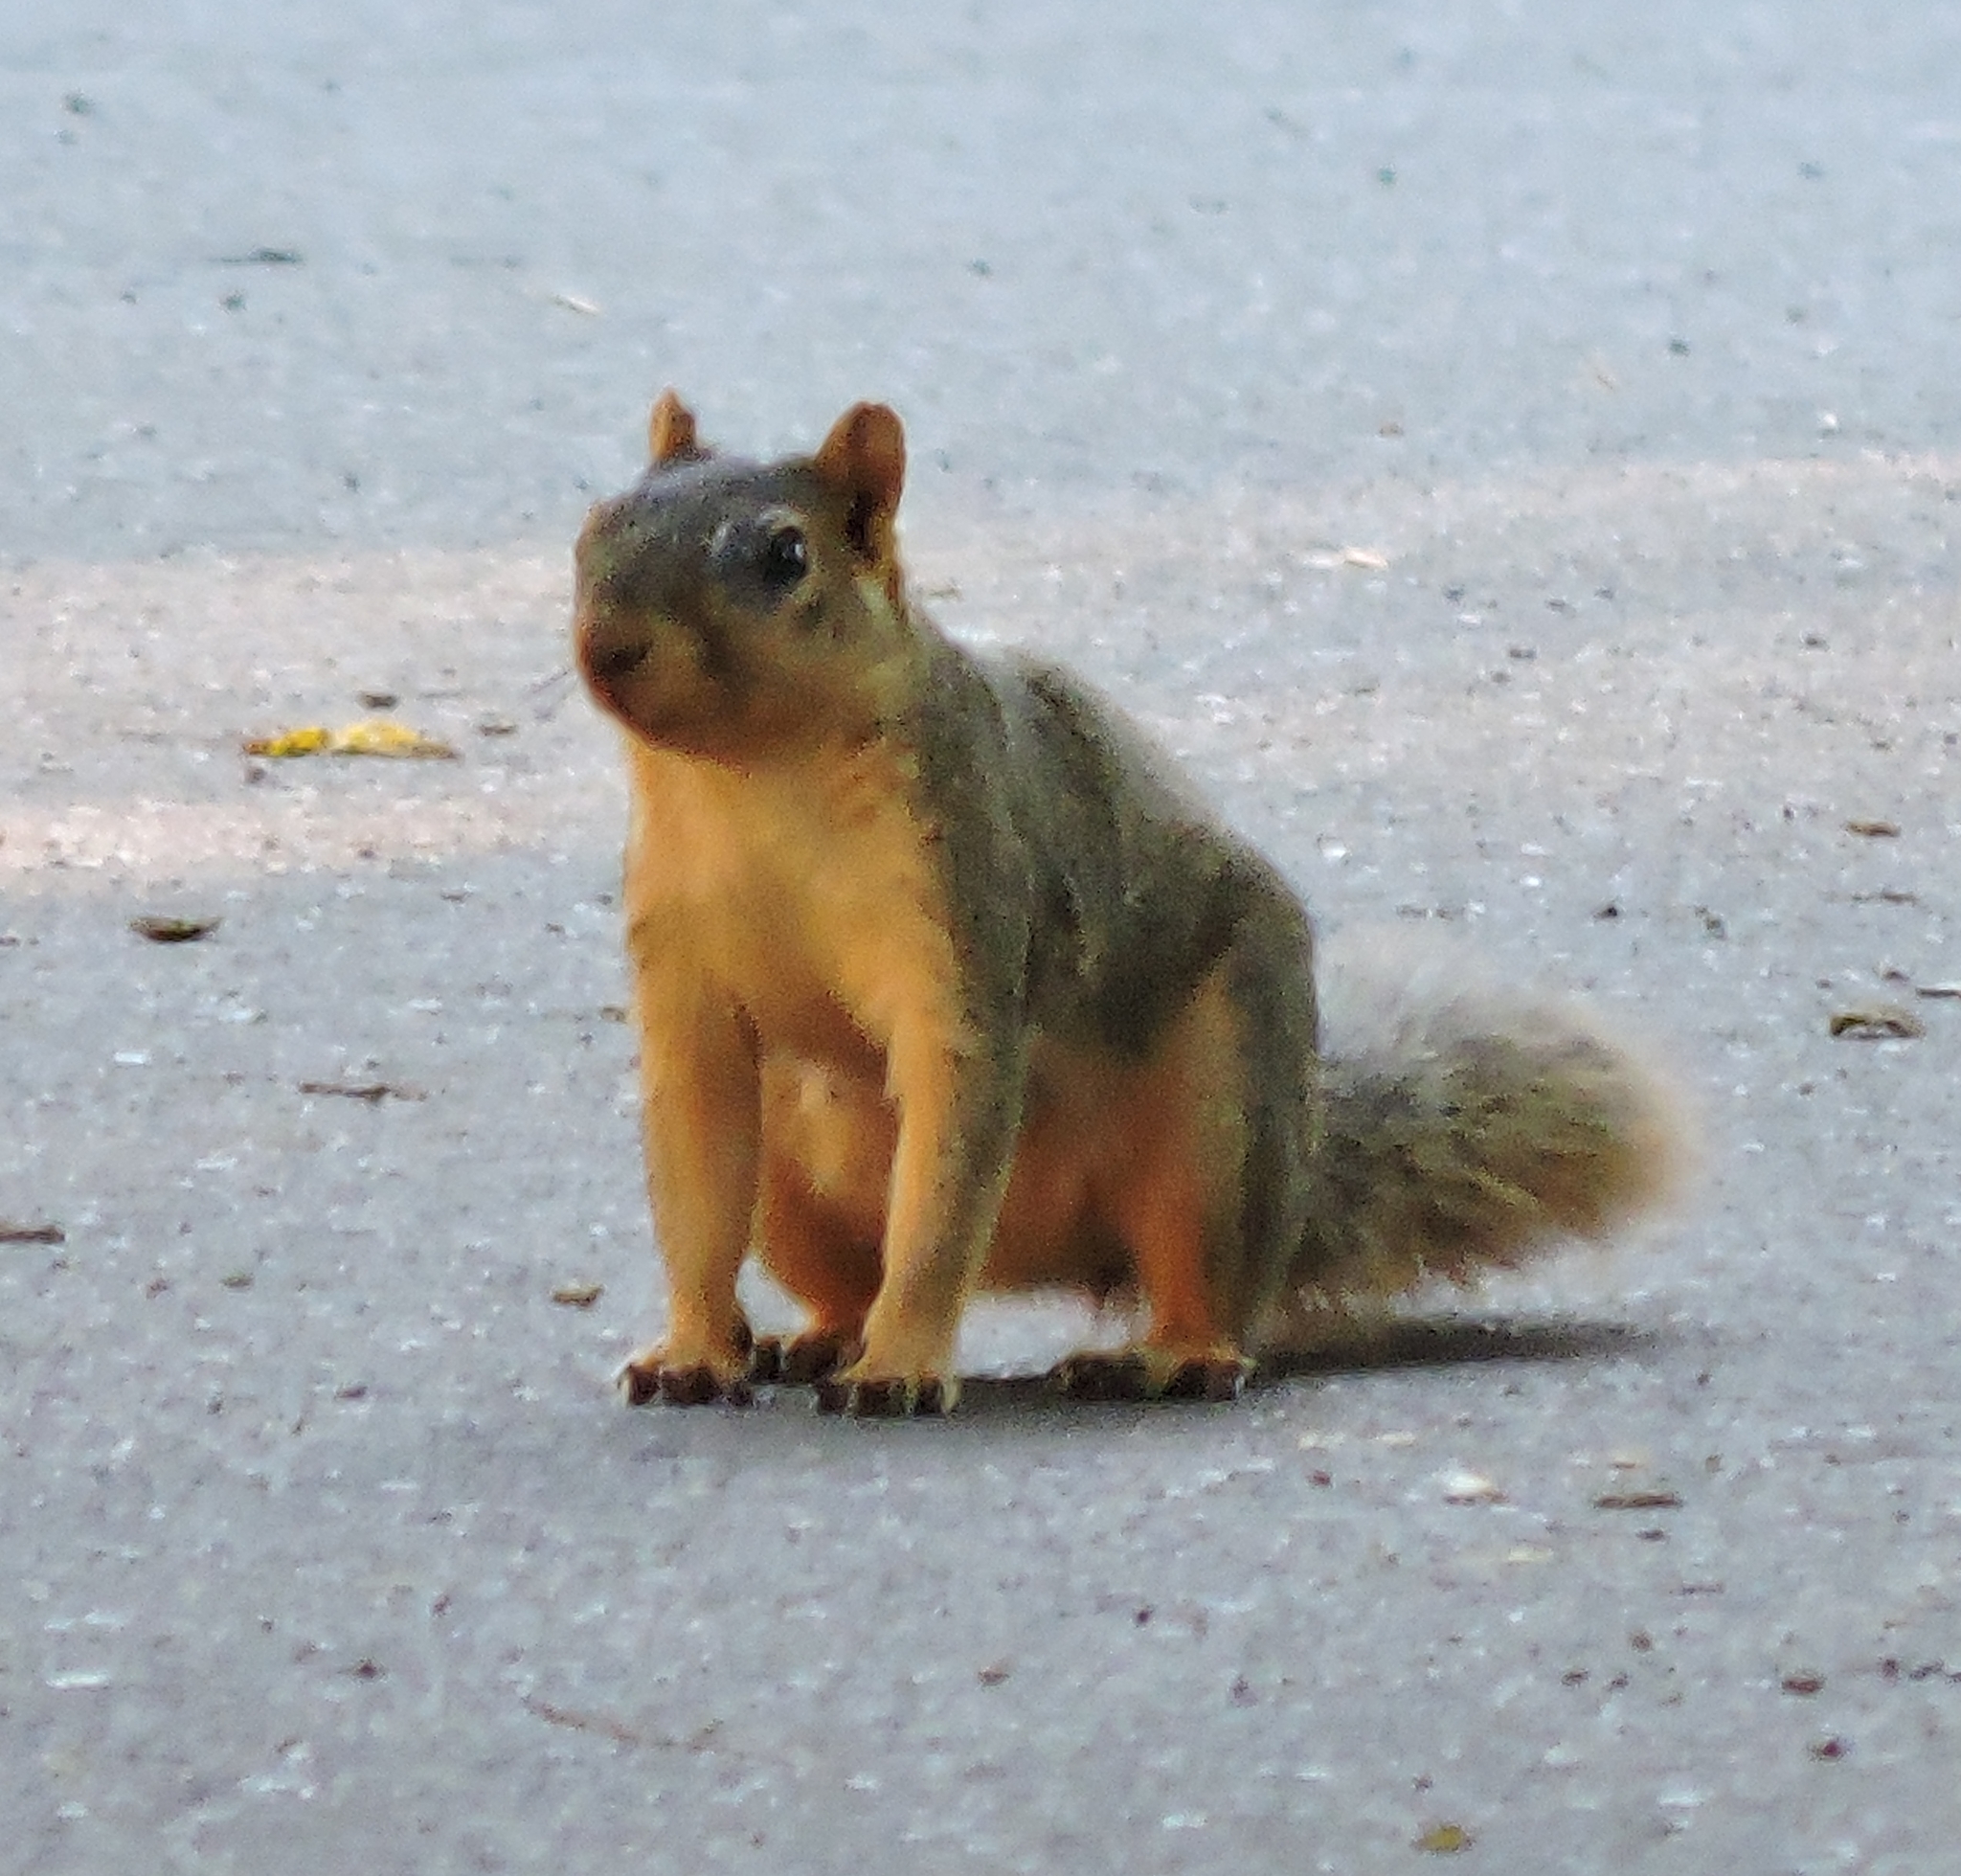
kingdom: Animalia
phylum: Chordata
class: Mammalia
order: Rodentia
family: Sciuridae
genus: Sciurus
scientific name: Sciurus niger
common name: Fox squirrel
